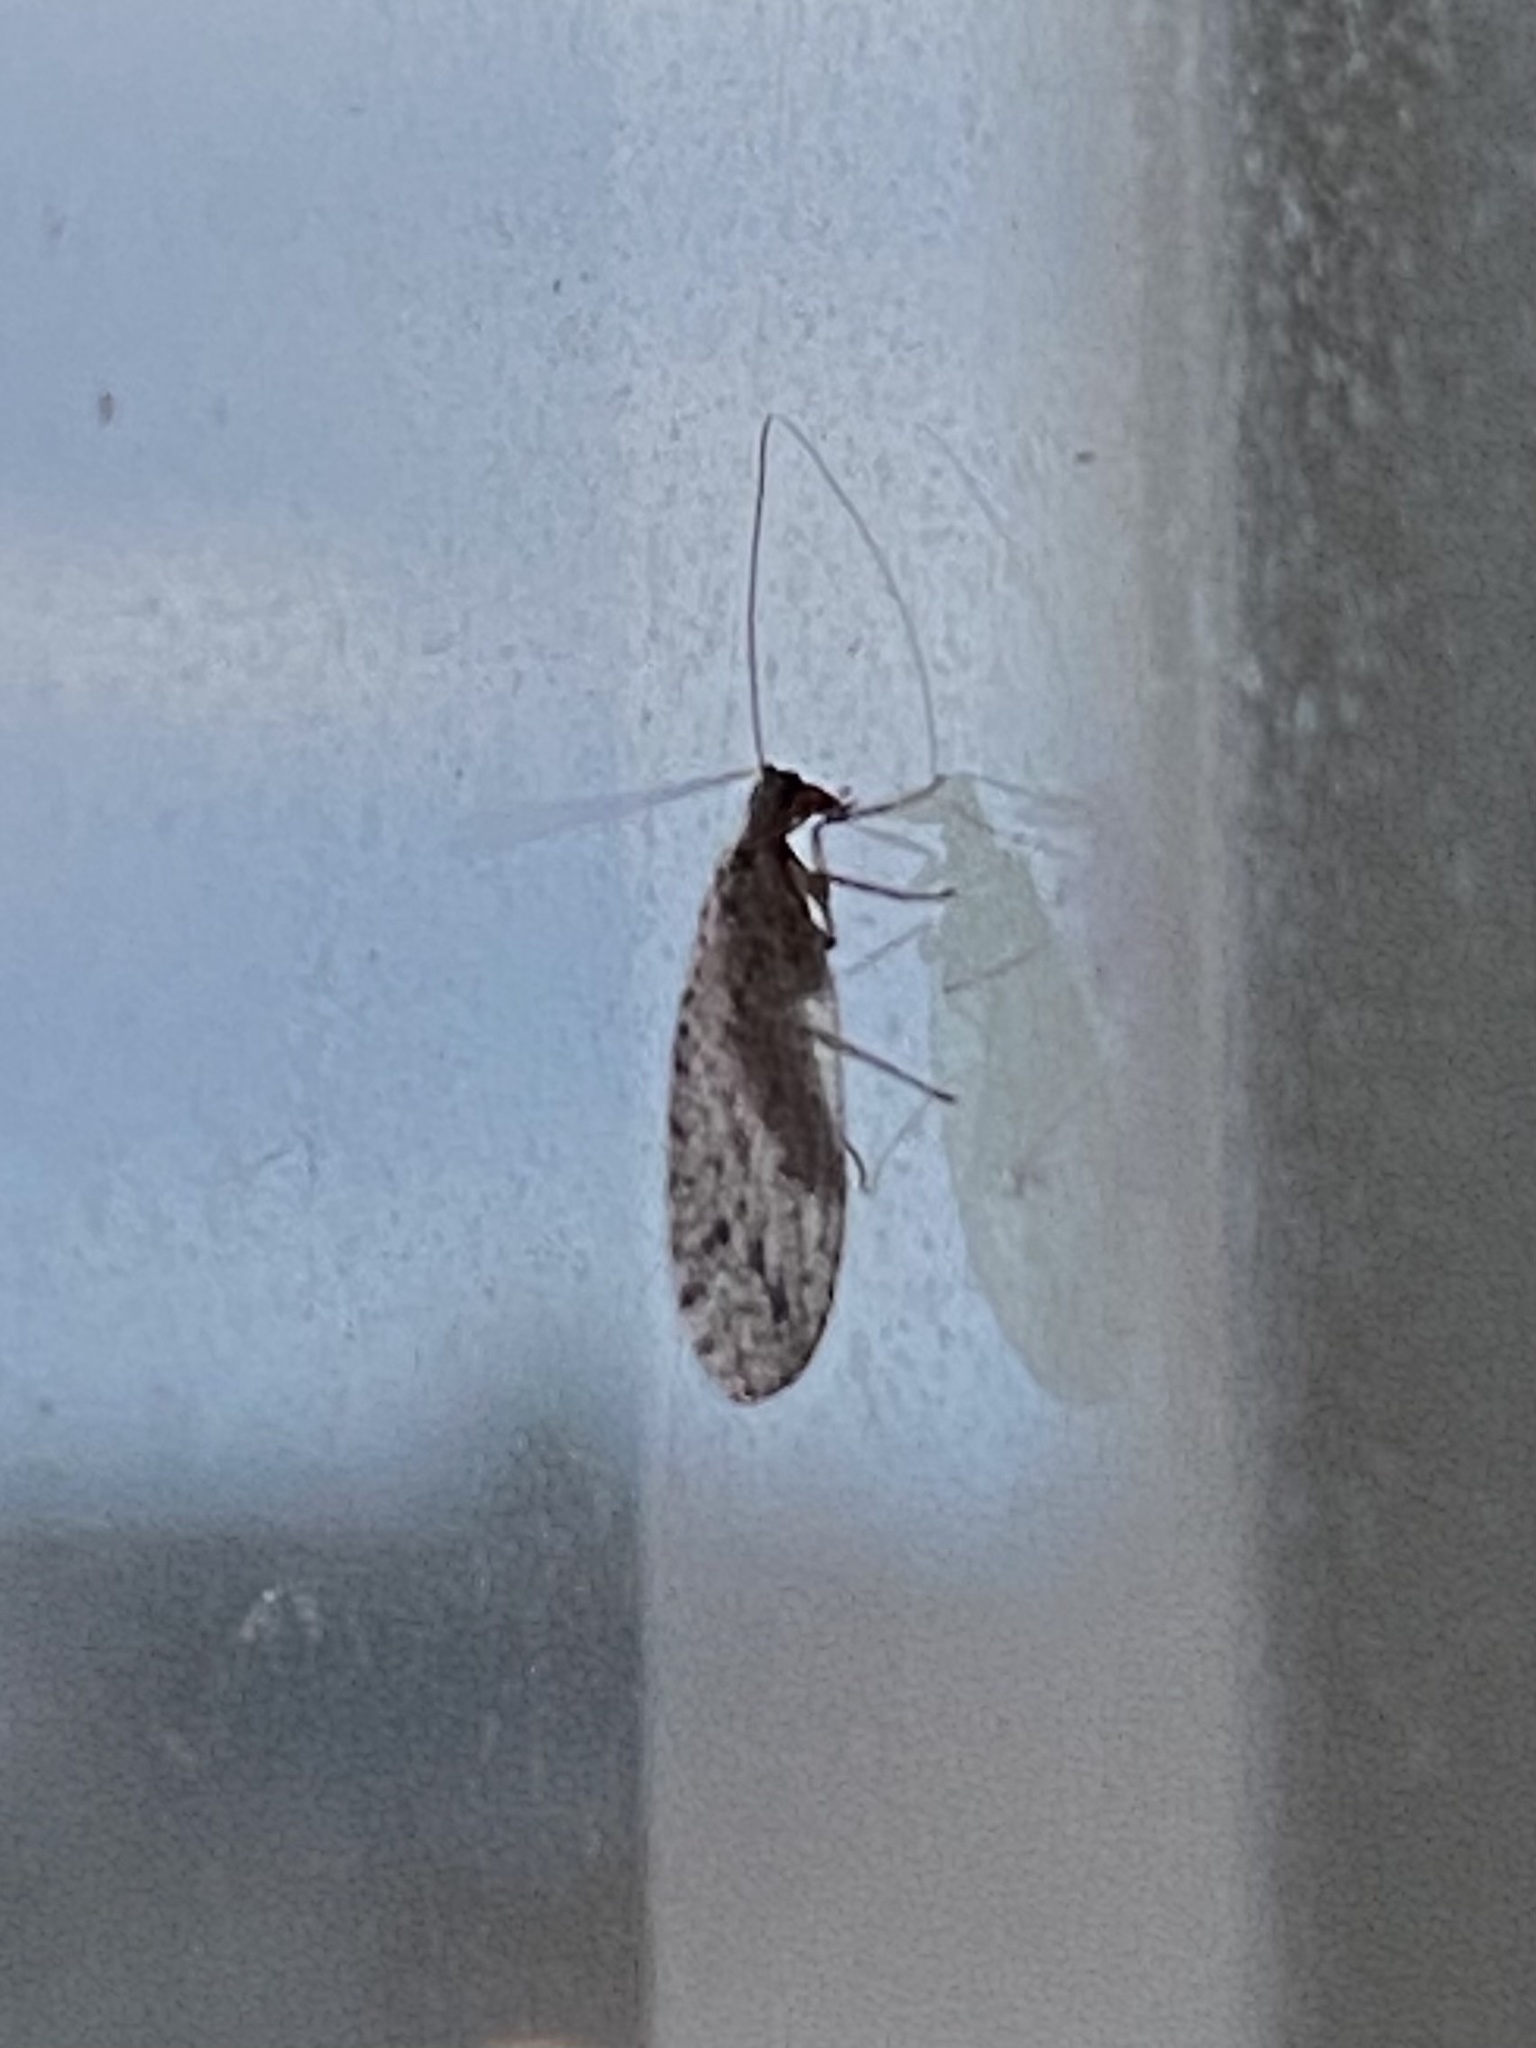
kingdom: Animalia
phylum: Arthropoda
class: Insecta
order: Neuroptera
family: Hemerobiidae
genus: Micromus
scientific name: Micromus variolosus
